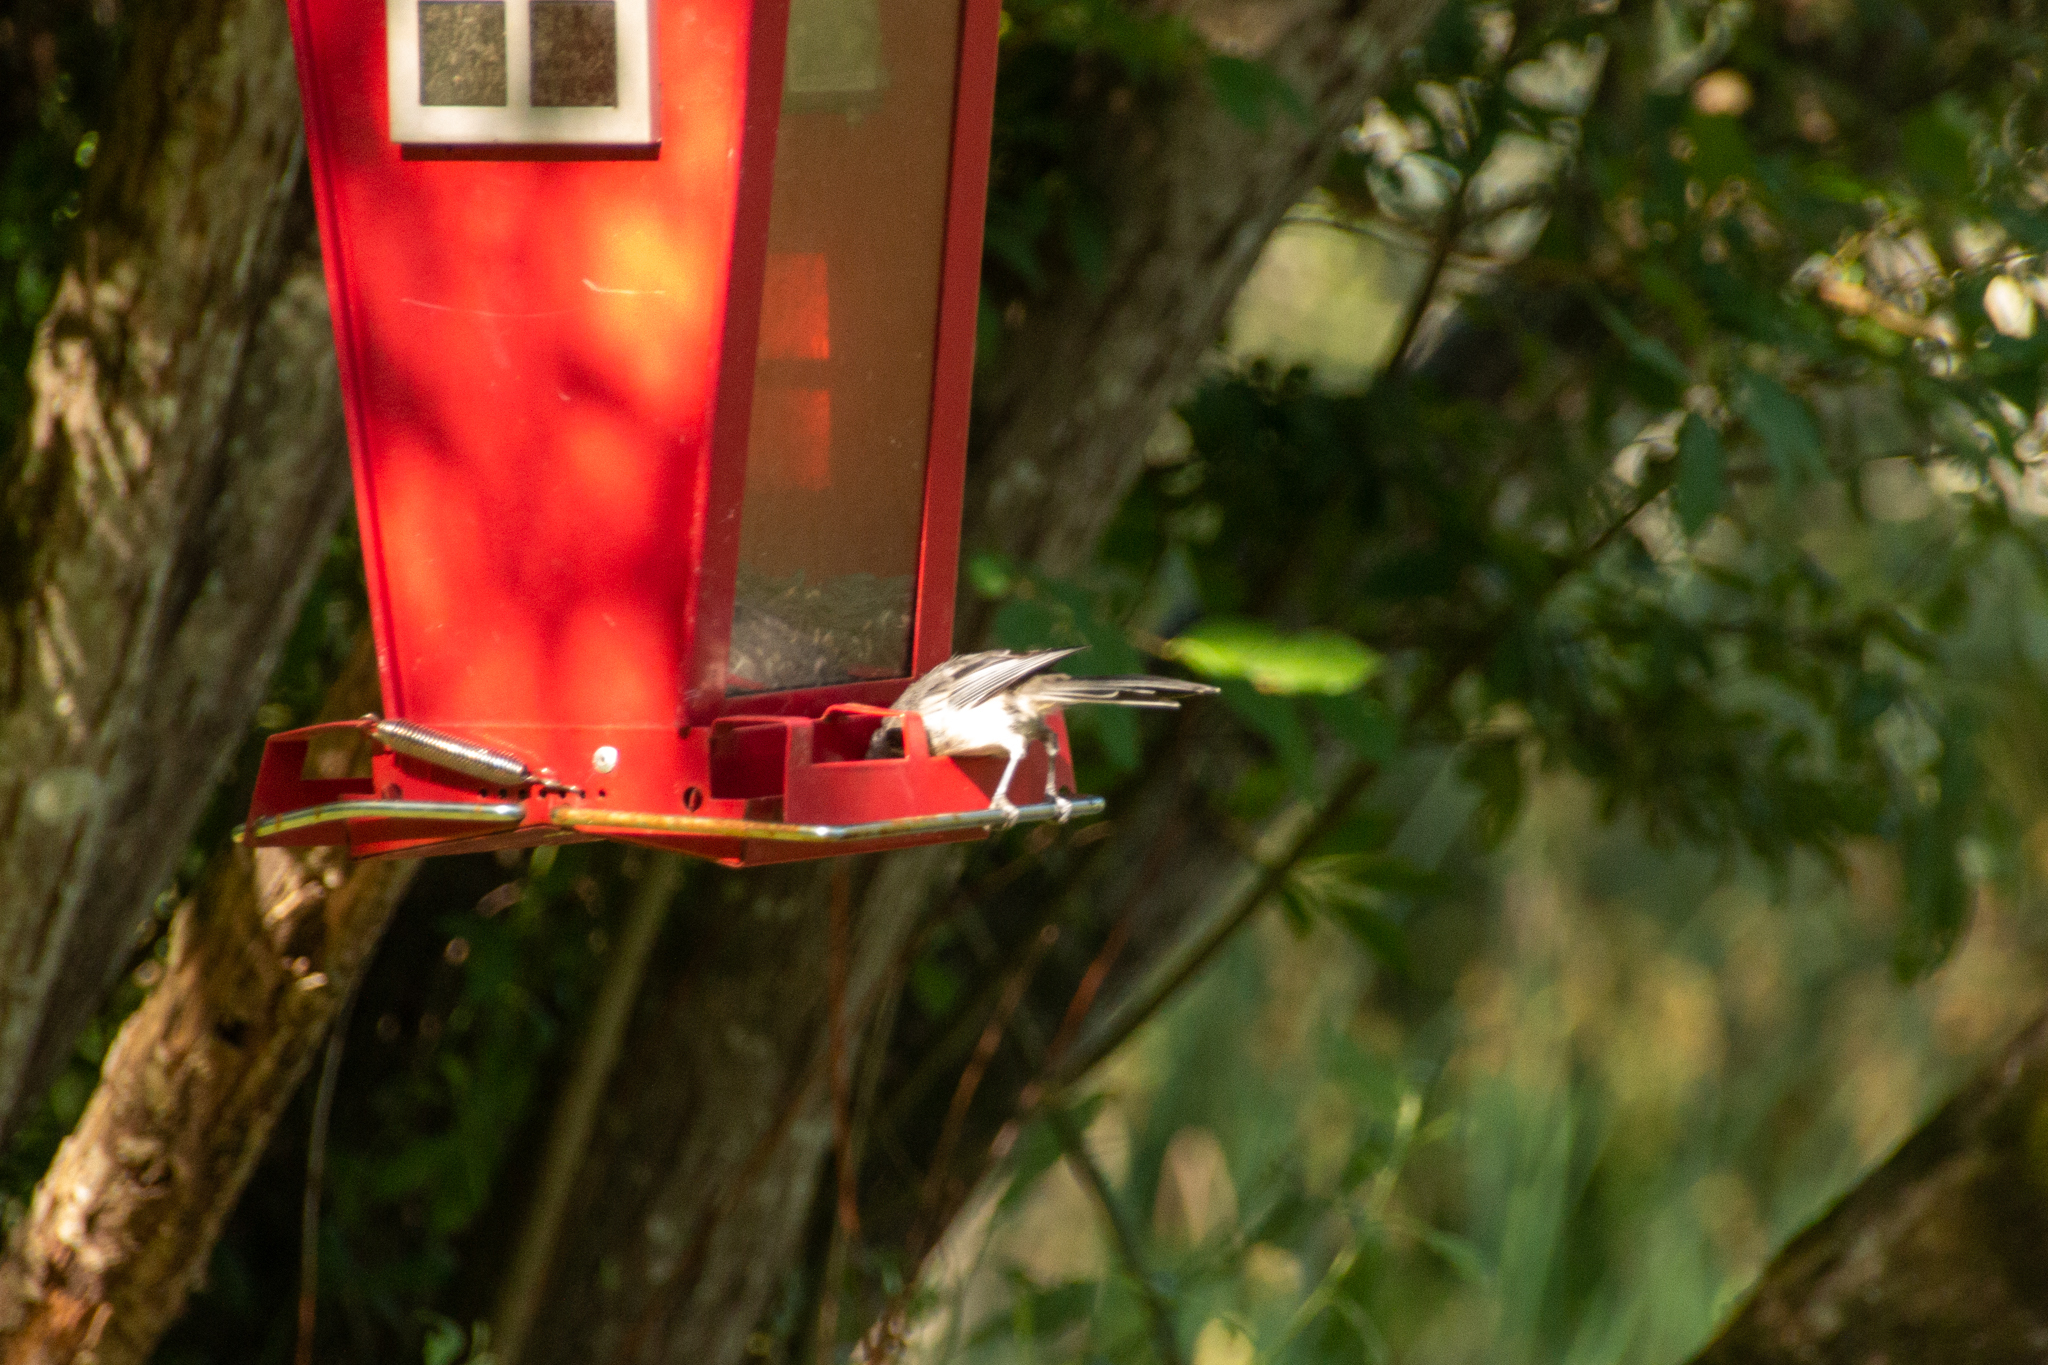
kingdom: Animalia
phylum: Chordata
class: Aves
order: Passeriformes
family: Paridae
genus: Poecile
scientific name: Poecile atricapillus
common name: Black-capped chickadee
